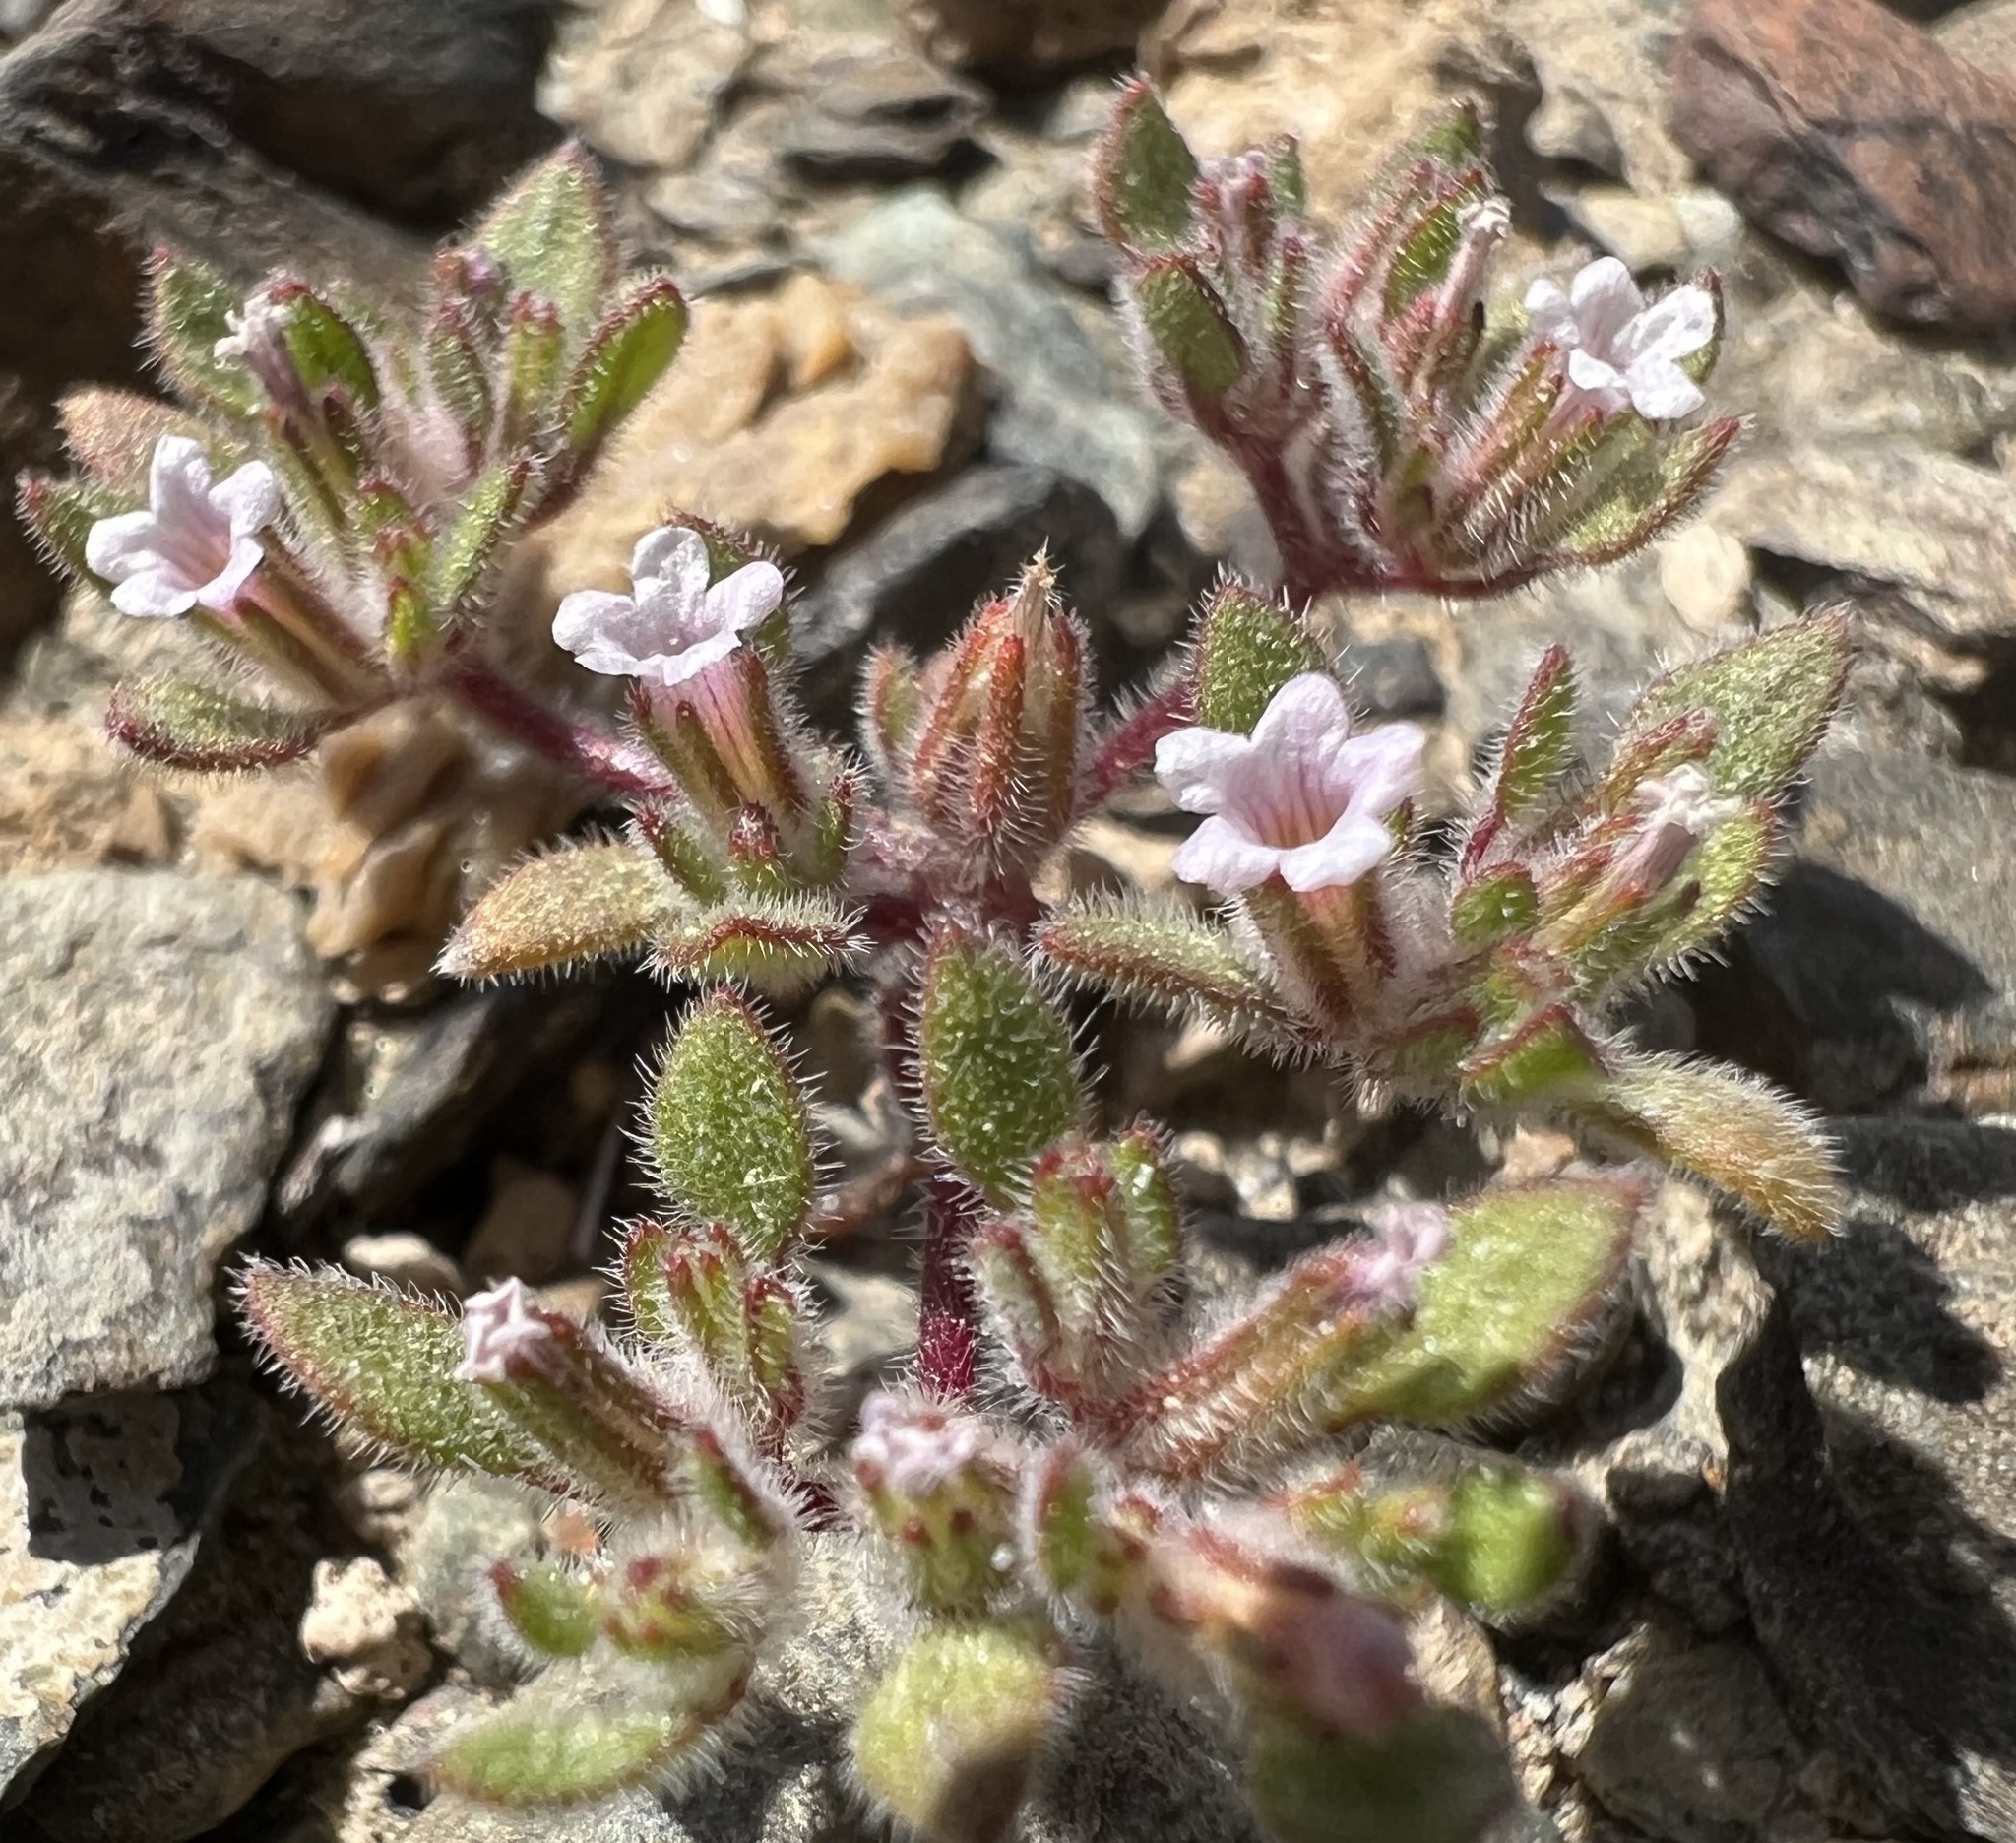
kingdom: Plantae
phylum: Tracheophyta
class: Magnoliopsida
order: Boraginales
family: Namaceae
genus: Nama
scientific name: Nama pusilla
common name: Eggleaf nama
